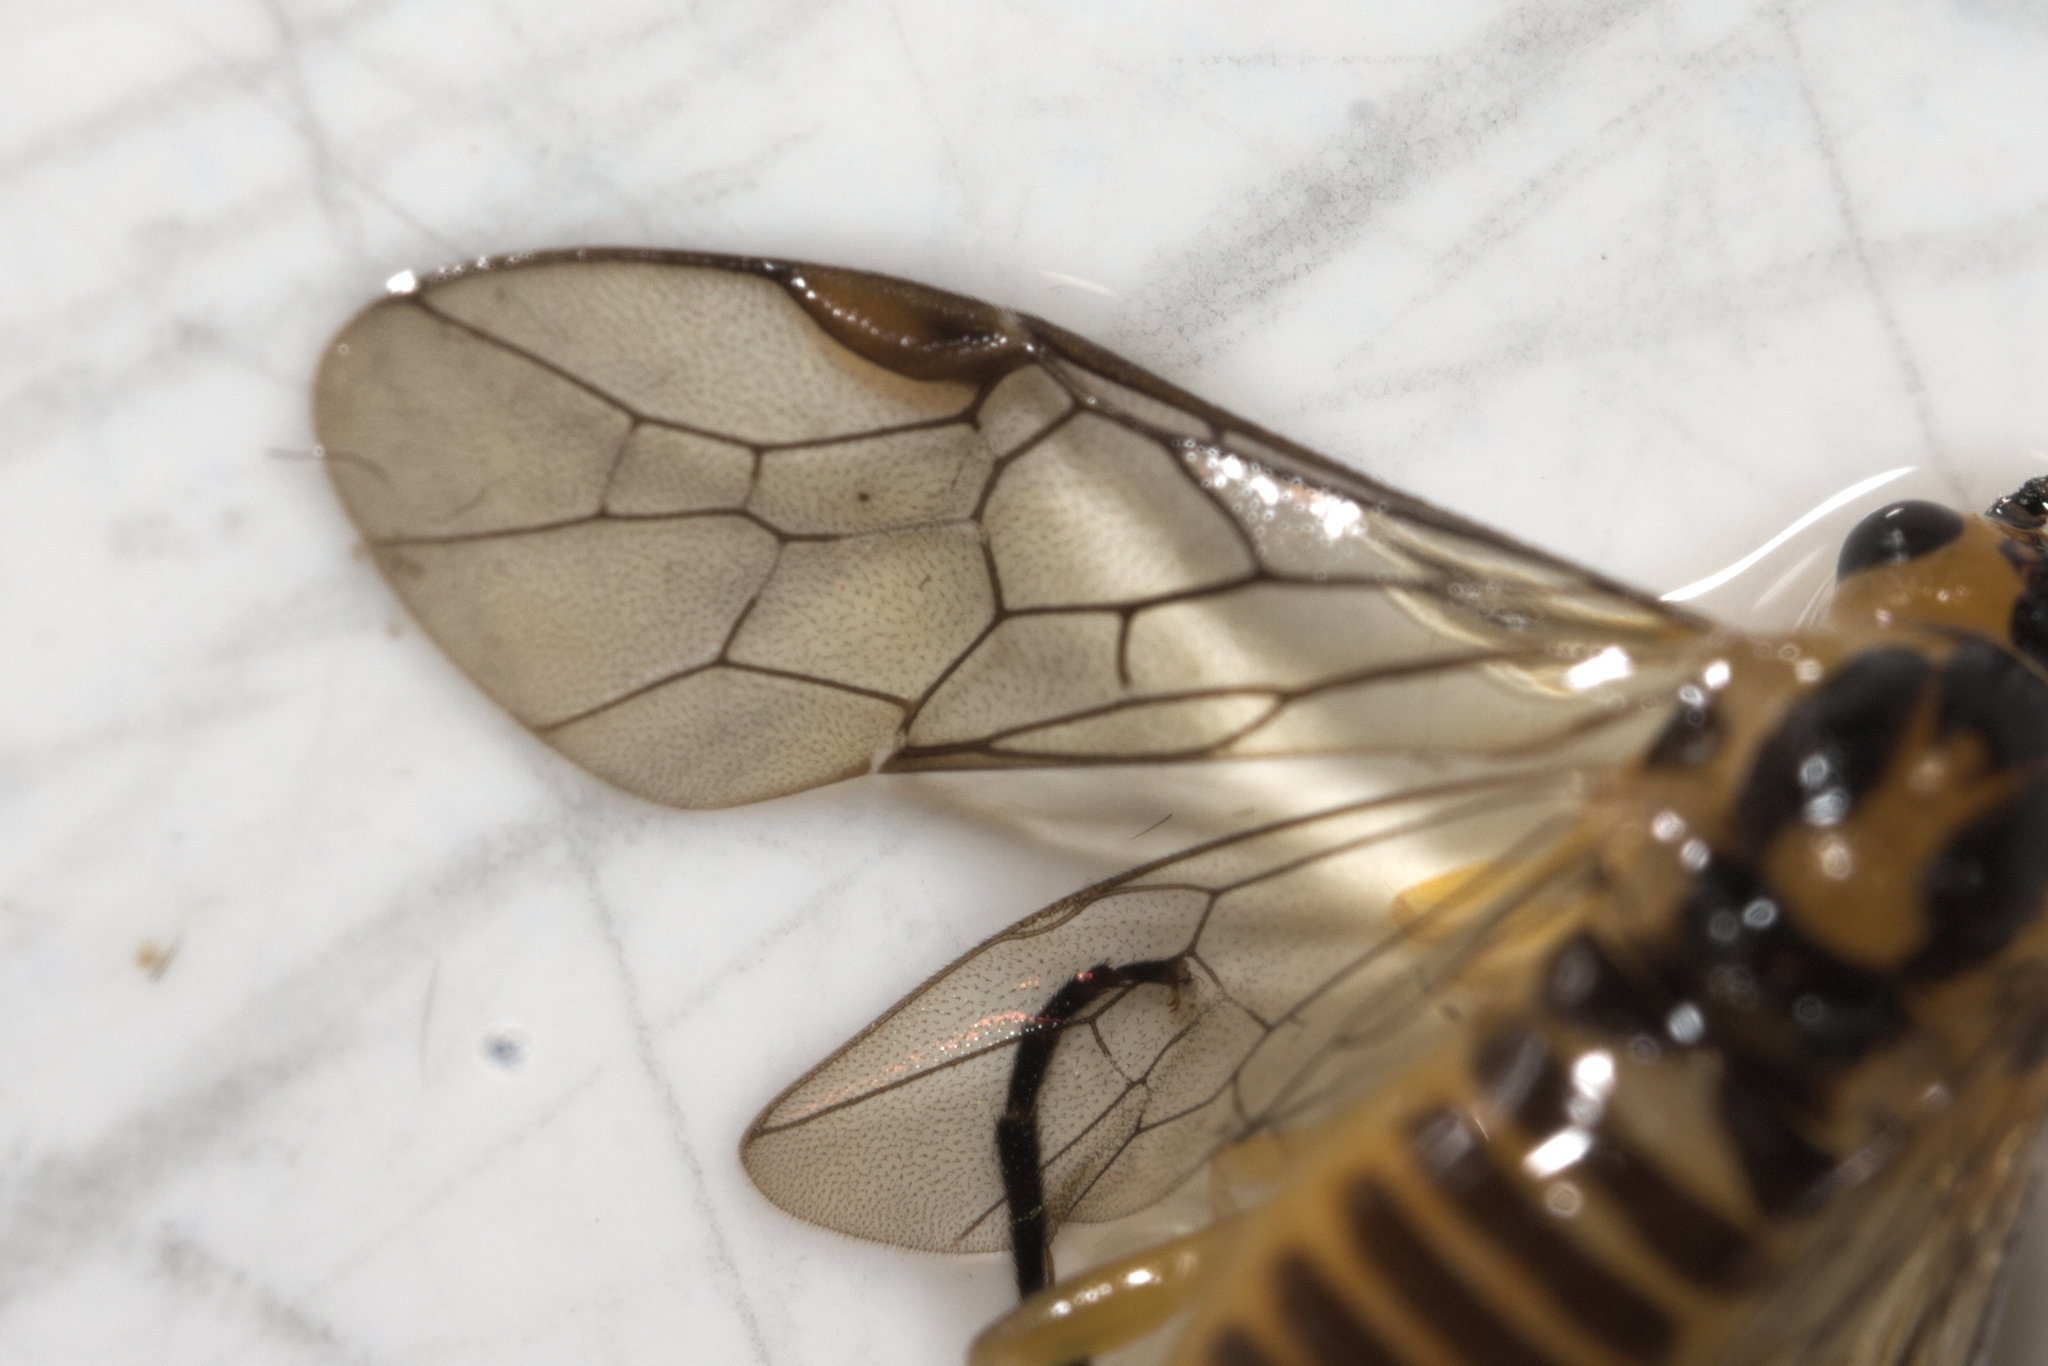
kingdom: Animalia
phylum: Arthropoda
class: Insecta
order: Hymenoptera
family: Tenthredinidae
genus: Euura
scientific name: Euura tibialis
